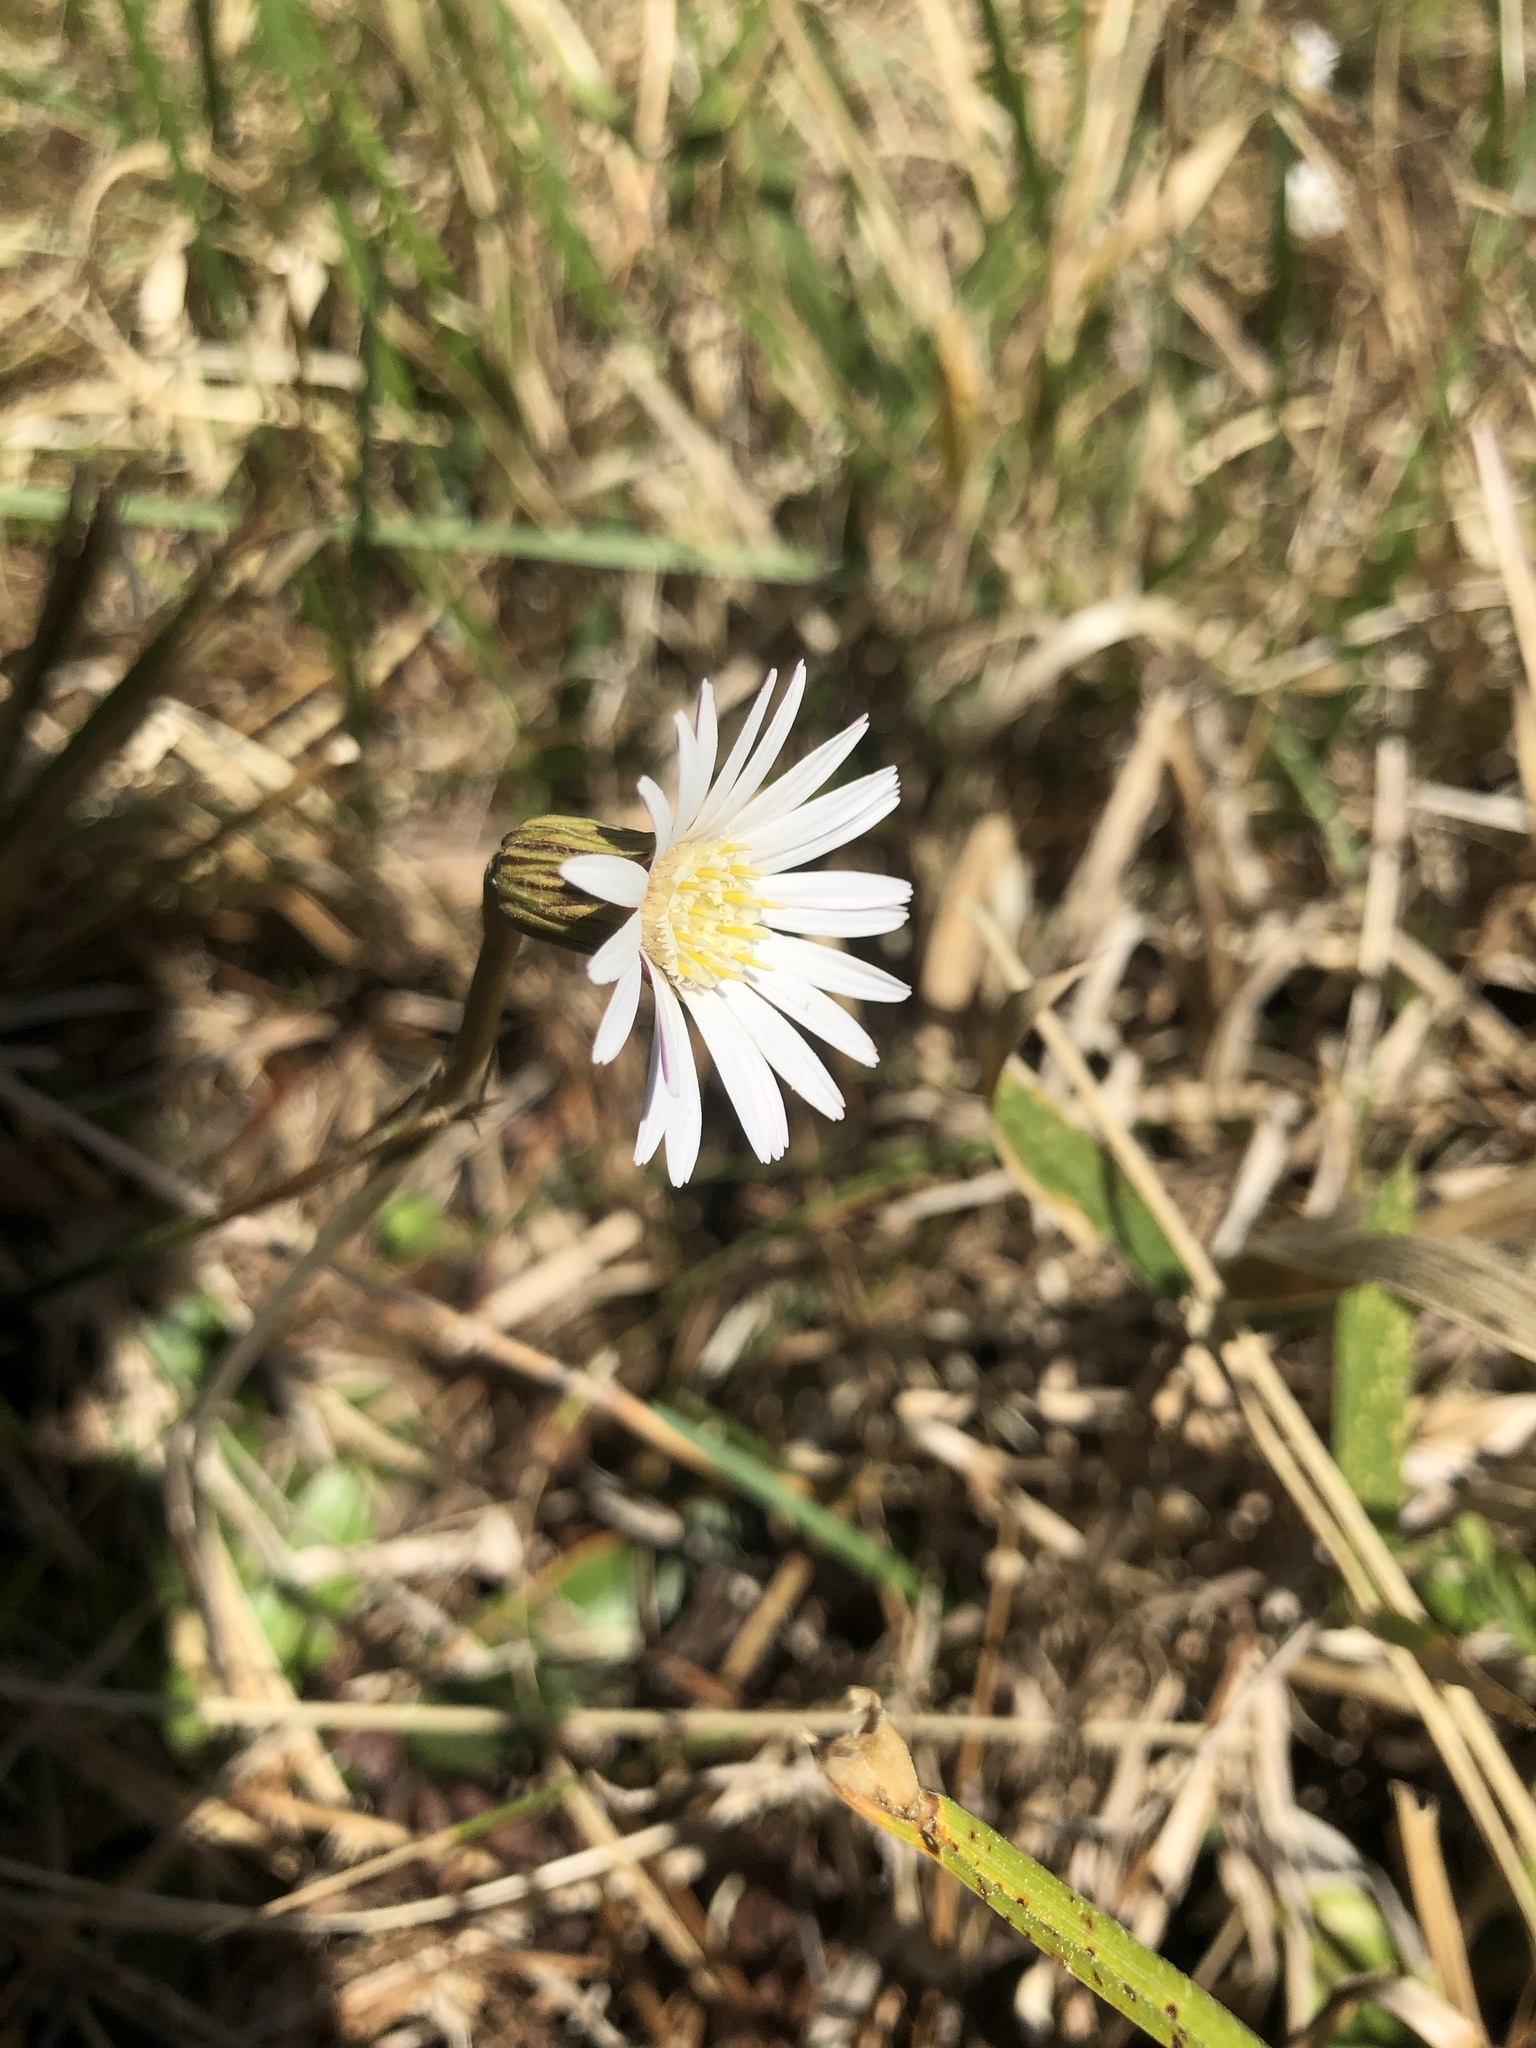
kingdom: Plantae
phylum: Tracheophyta
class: Magnoliopsida
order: Asterales
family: Asteraceae
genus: Chaptalia
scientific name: Chaptalia tomentosa
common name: Woolly sunbonnet
